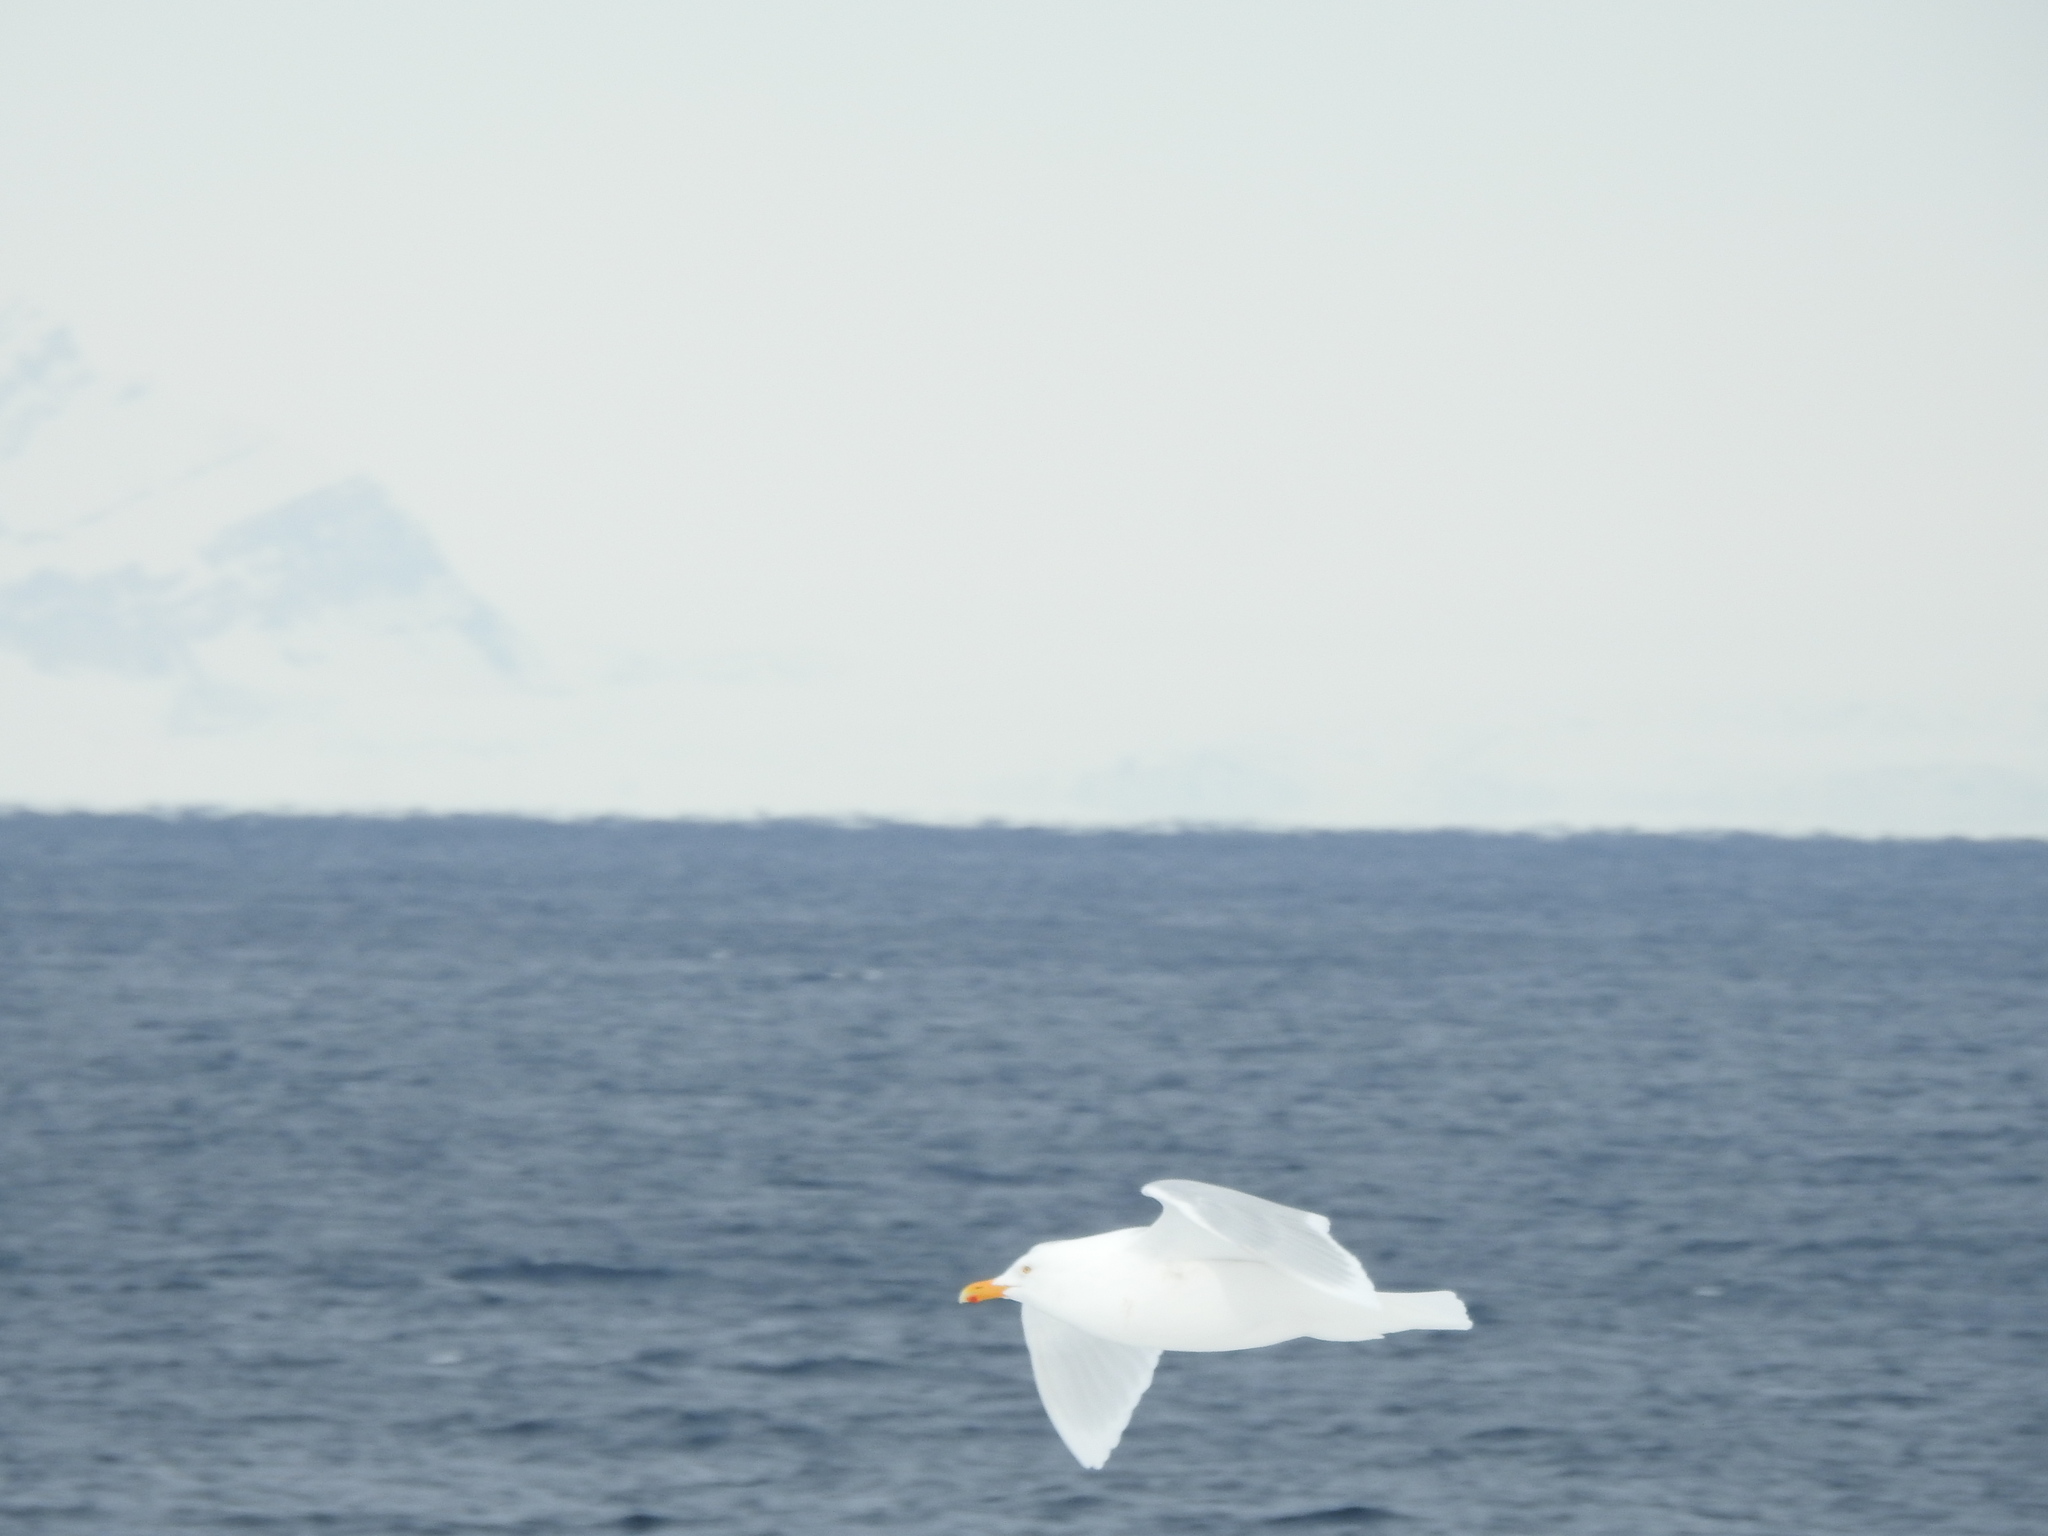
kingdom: Animalia
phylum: Chordata
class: Aves
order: Charadriiformes
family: Laridae
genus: Larus
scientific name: Larus hyperboreus
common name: Glaucous gull
